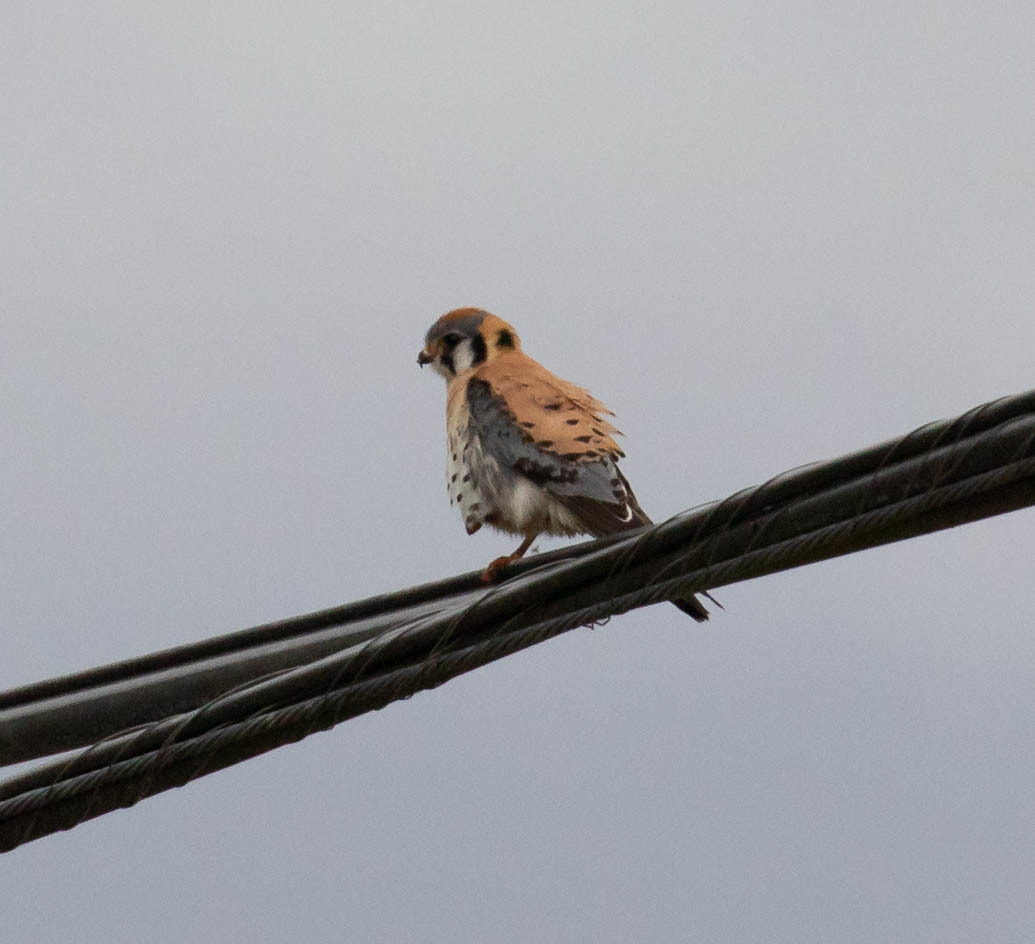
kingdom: Animalia
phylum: Chordata
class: Aves
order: Falconiformes
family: Falconidae
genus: Falco
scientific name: Falco sparverius
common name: American kestrel
